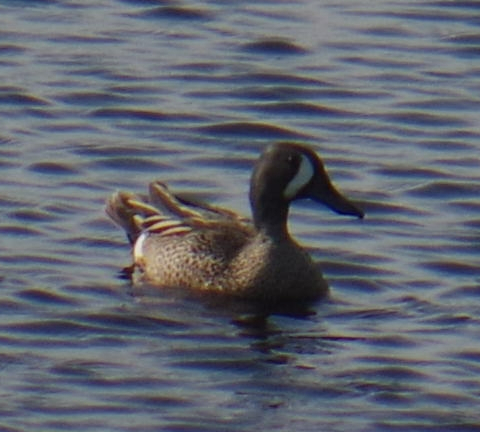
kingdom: Animalia
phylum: Chordata
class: Aves
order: Anseriformes
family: Anatidae
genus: Spatula
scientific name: Spatula discors
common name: Blue-winged teal
